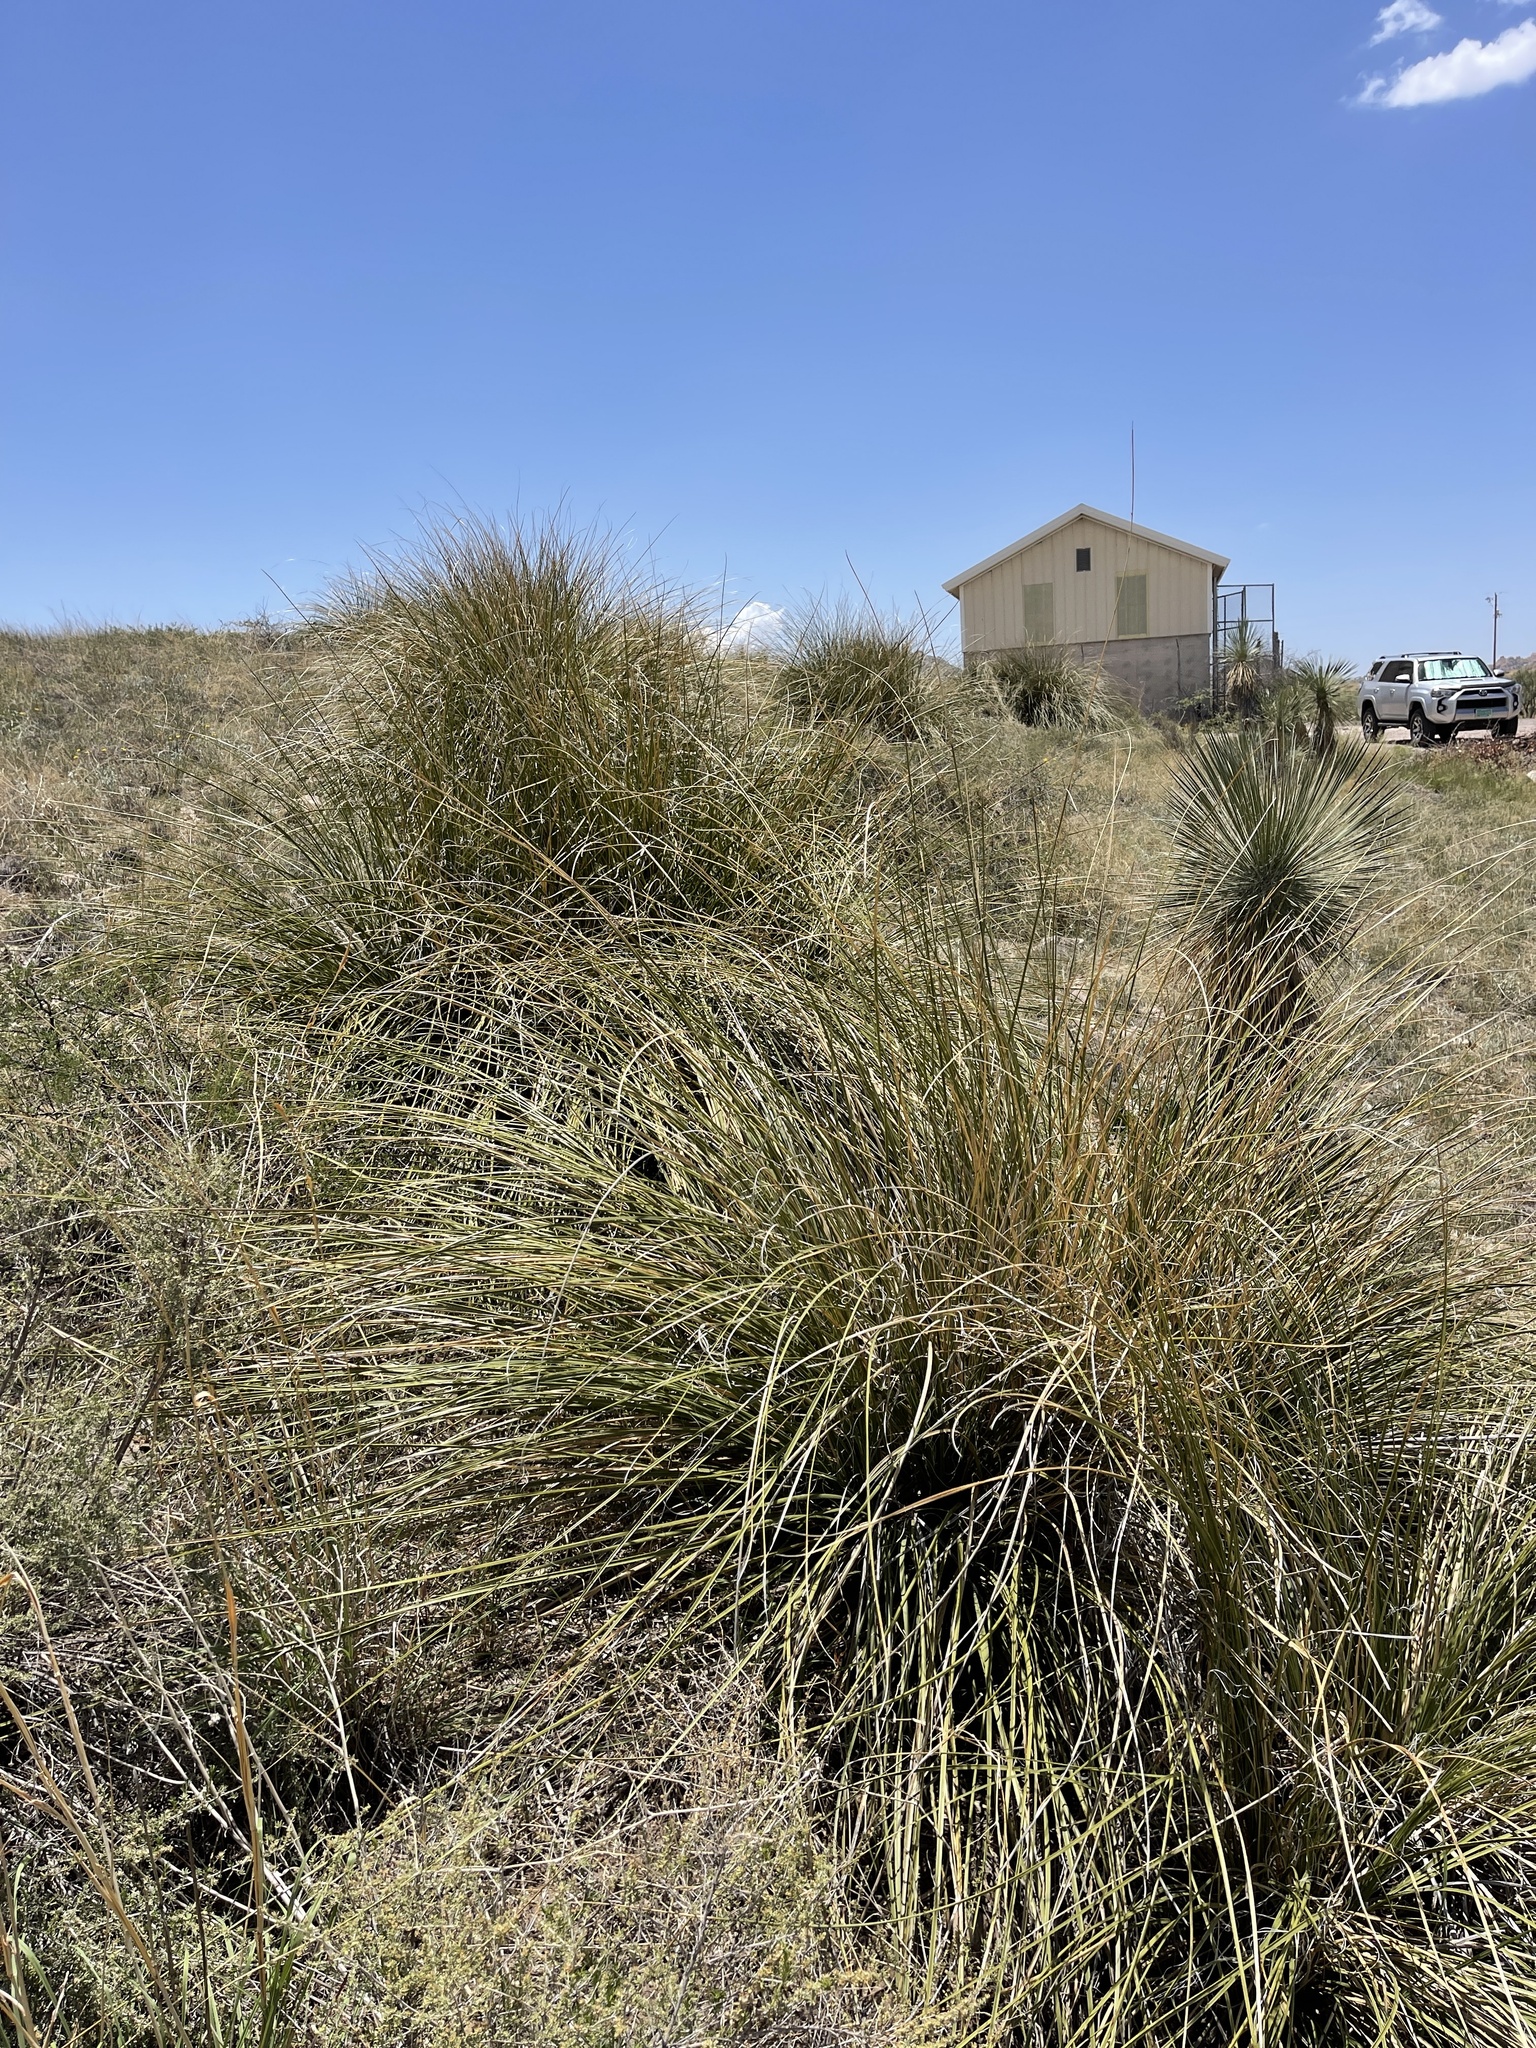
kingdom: Plantae
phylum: Tracheophyta
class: Liliopsida
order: Asparagales
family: Asparagaceae
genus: Nolina
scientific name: Nolina microcarpa
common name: Bear-grass
